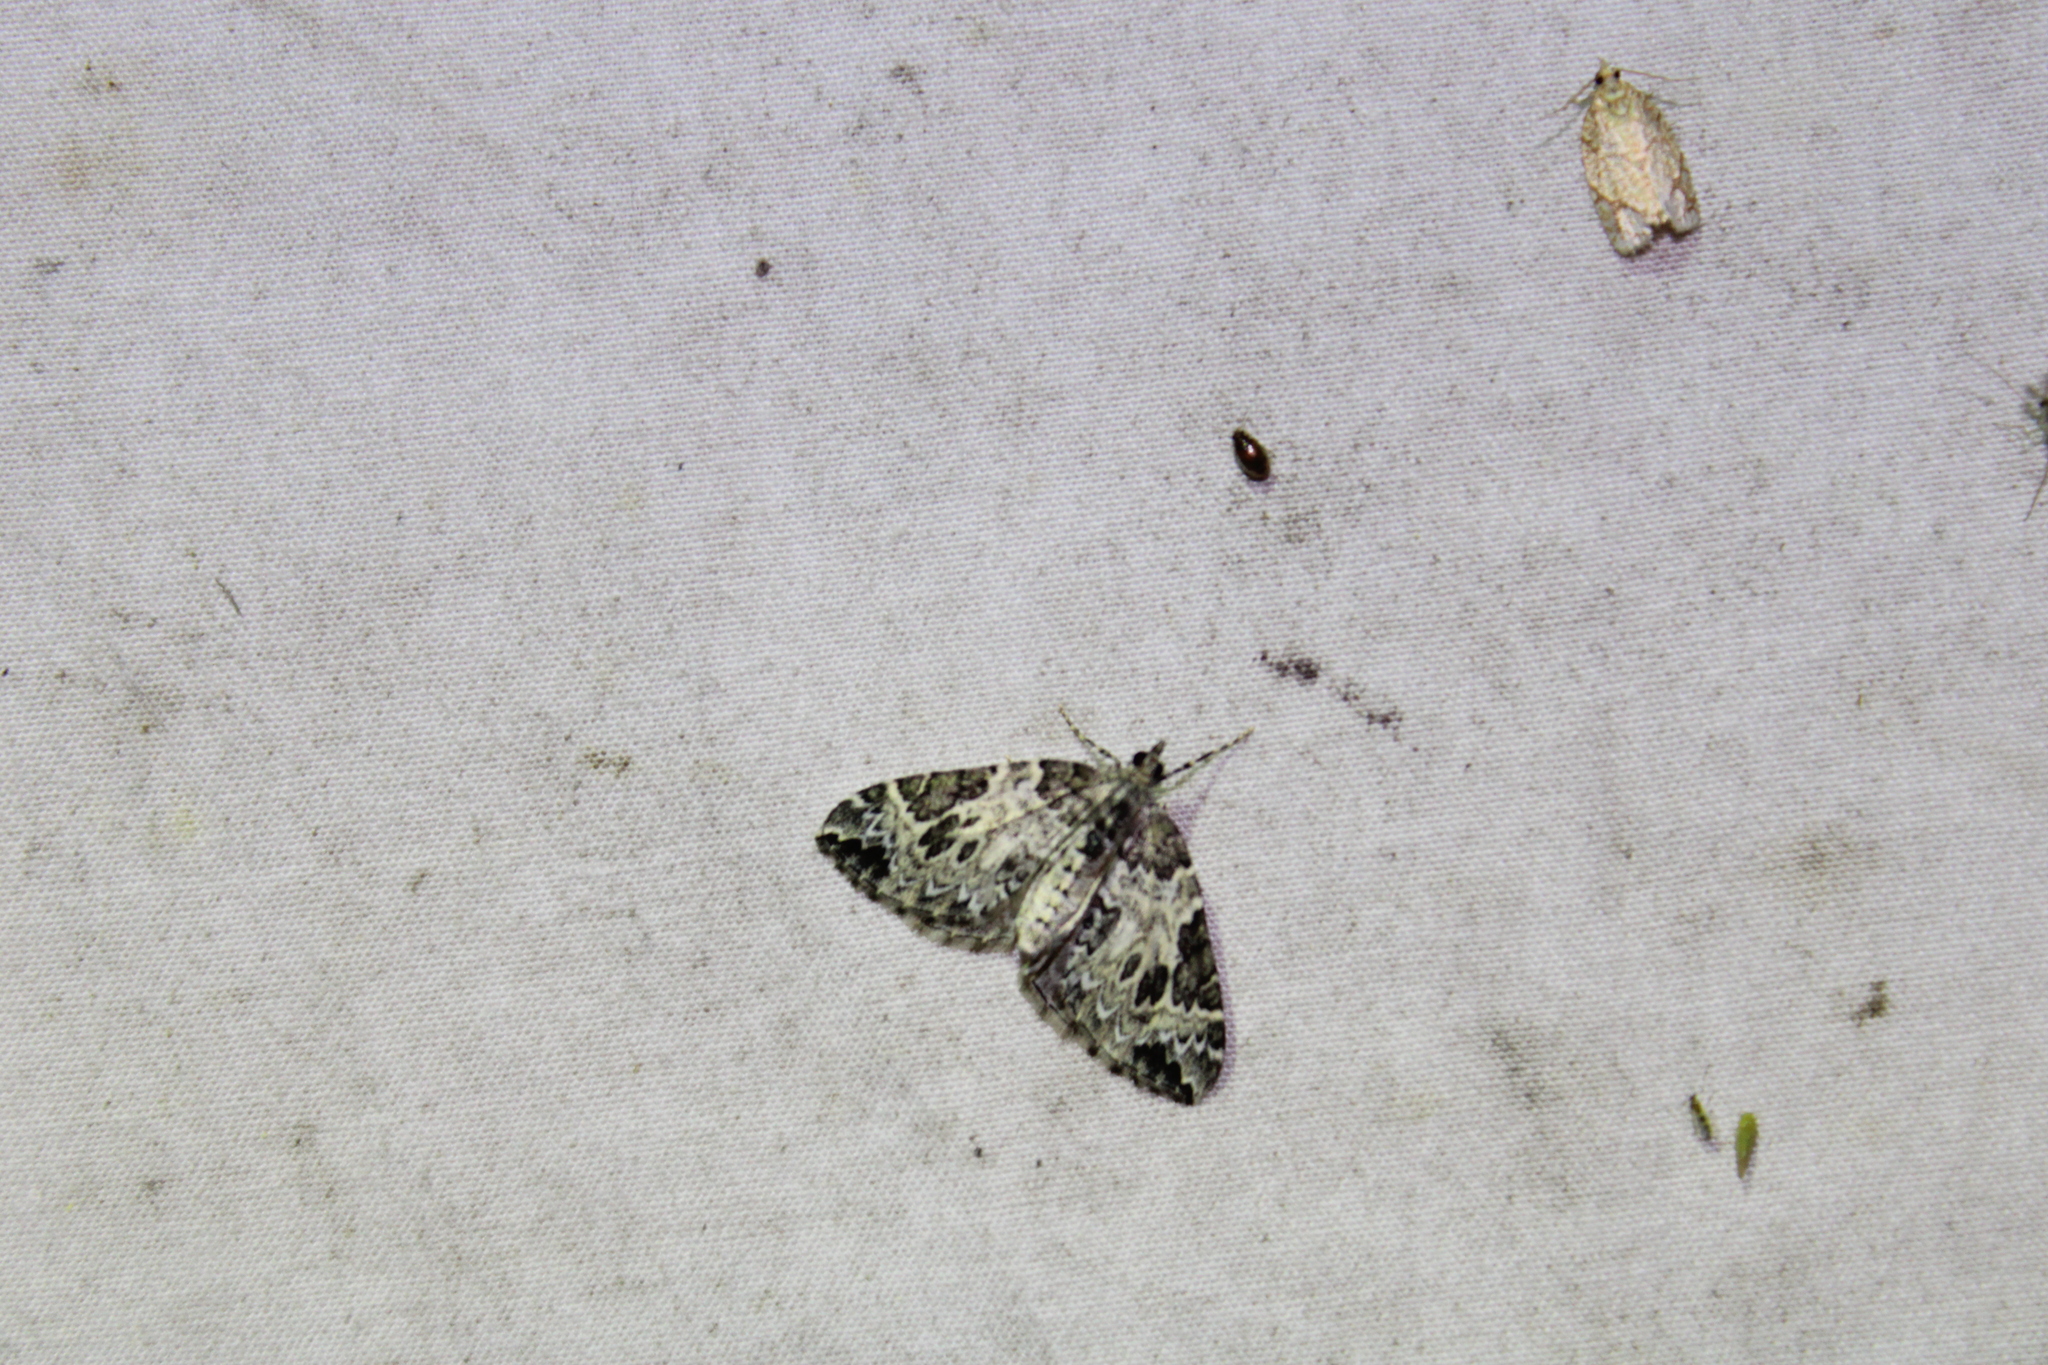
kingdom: Animalia
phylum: Arthropoda
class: Insecta
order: Lepidoptera
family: Geometridae
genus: Eulithis
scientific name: Eulithis explanata
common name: White eulithis
